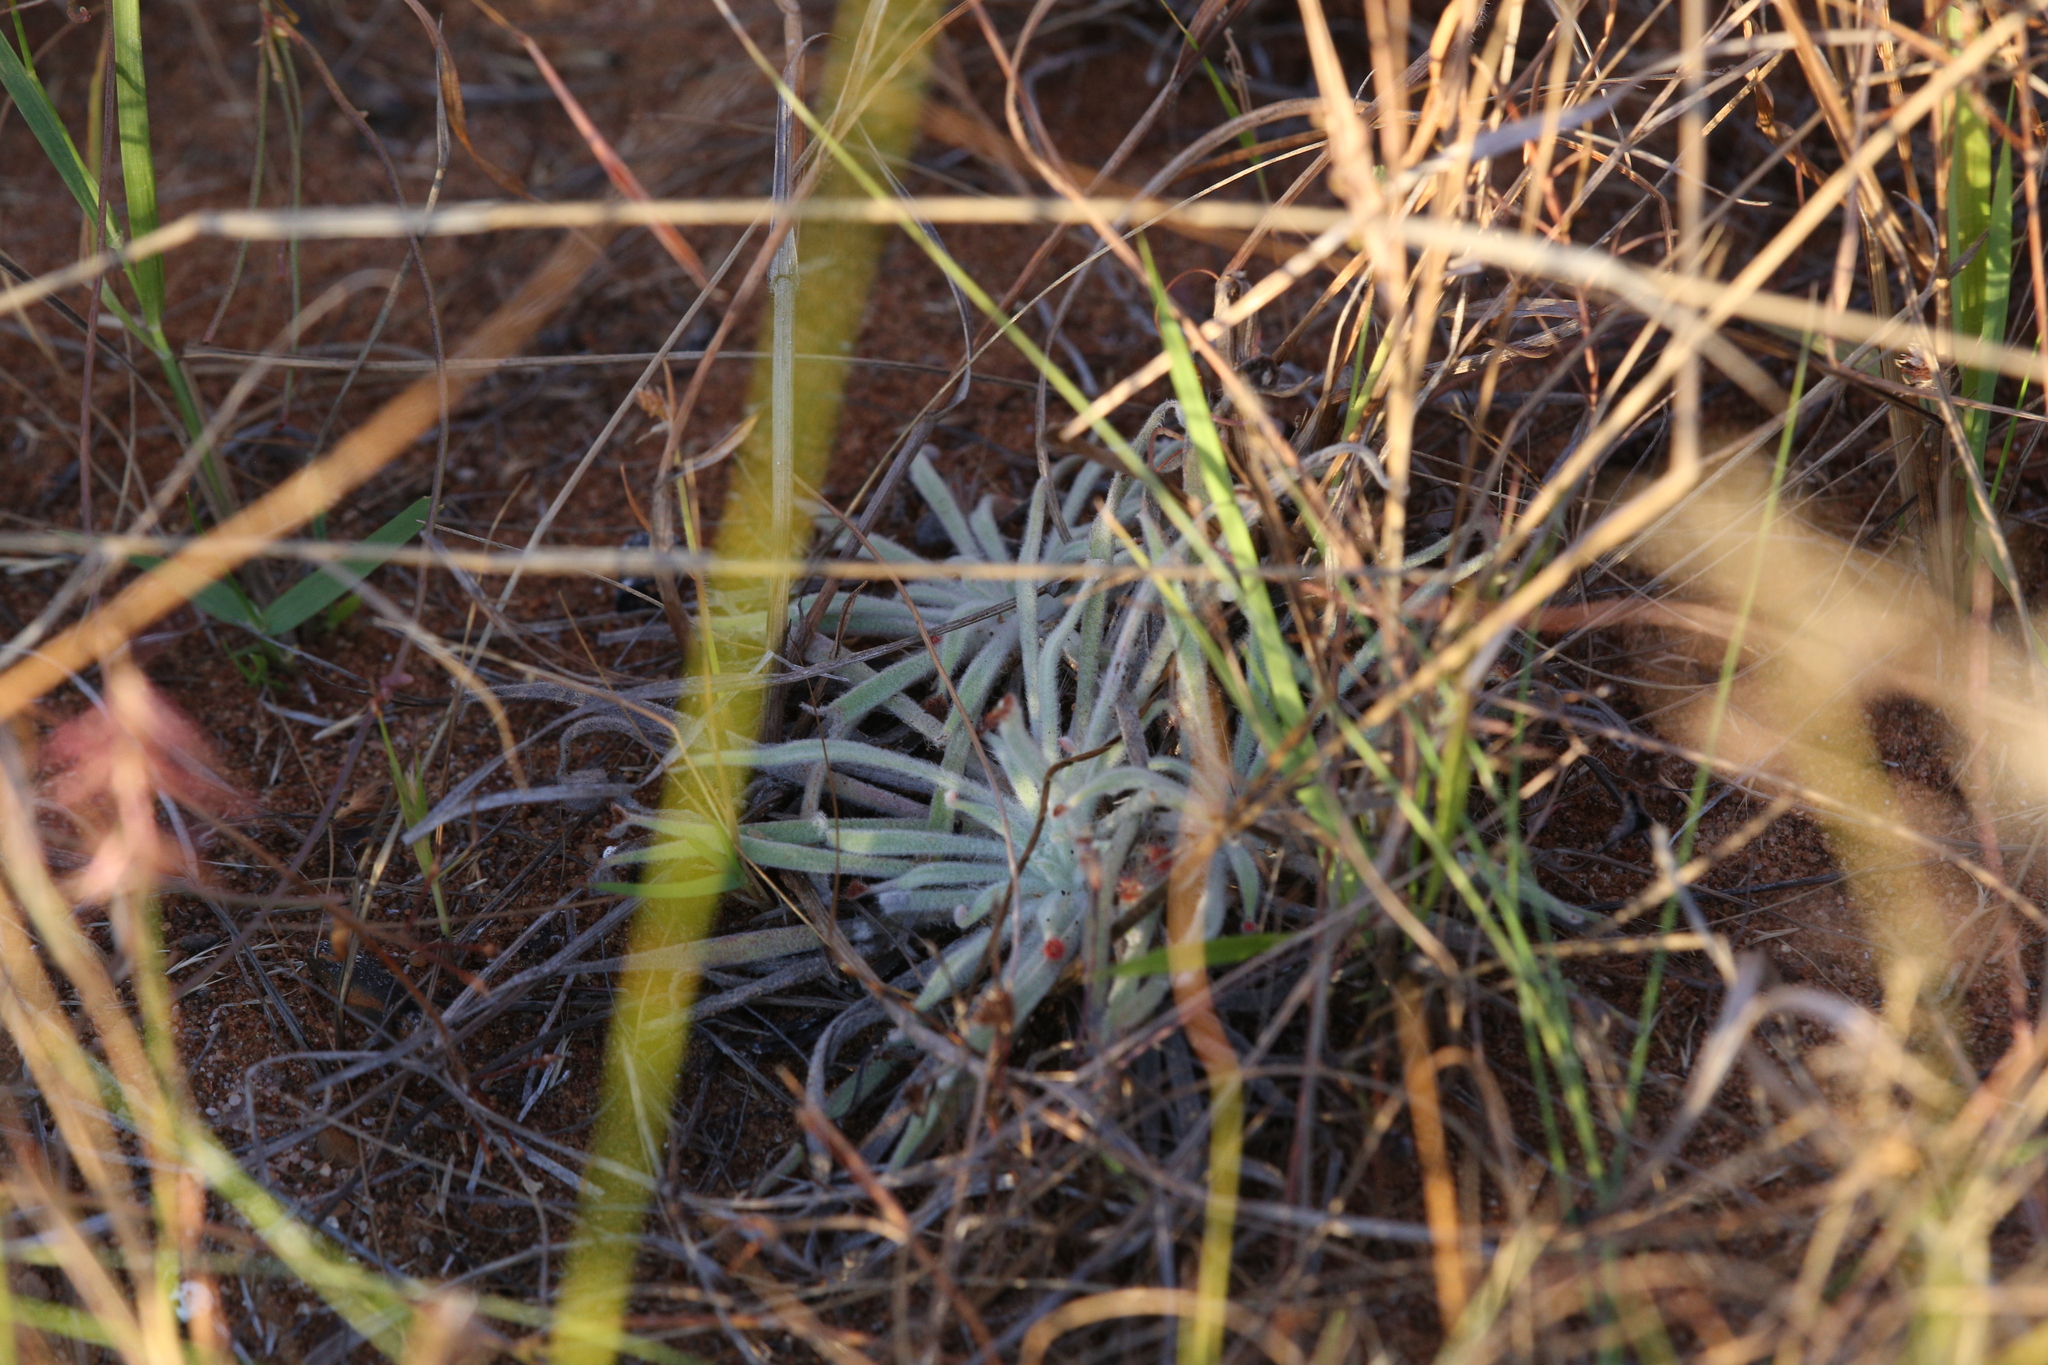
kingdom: Plantae
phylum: Tracheophyta
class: Magnoliopsida
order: Caryophyllales
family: Droseraceae
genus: Drosera
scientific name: Drosera ordensis
